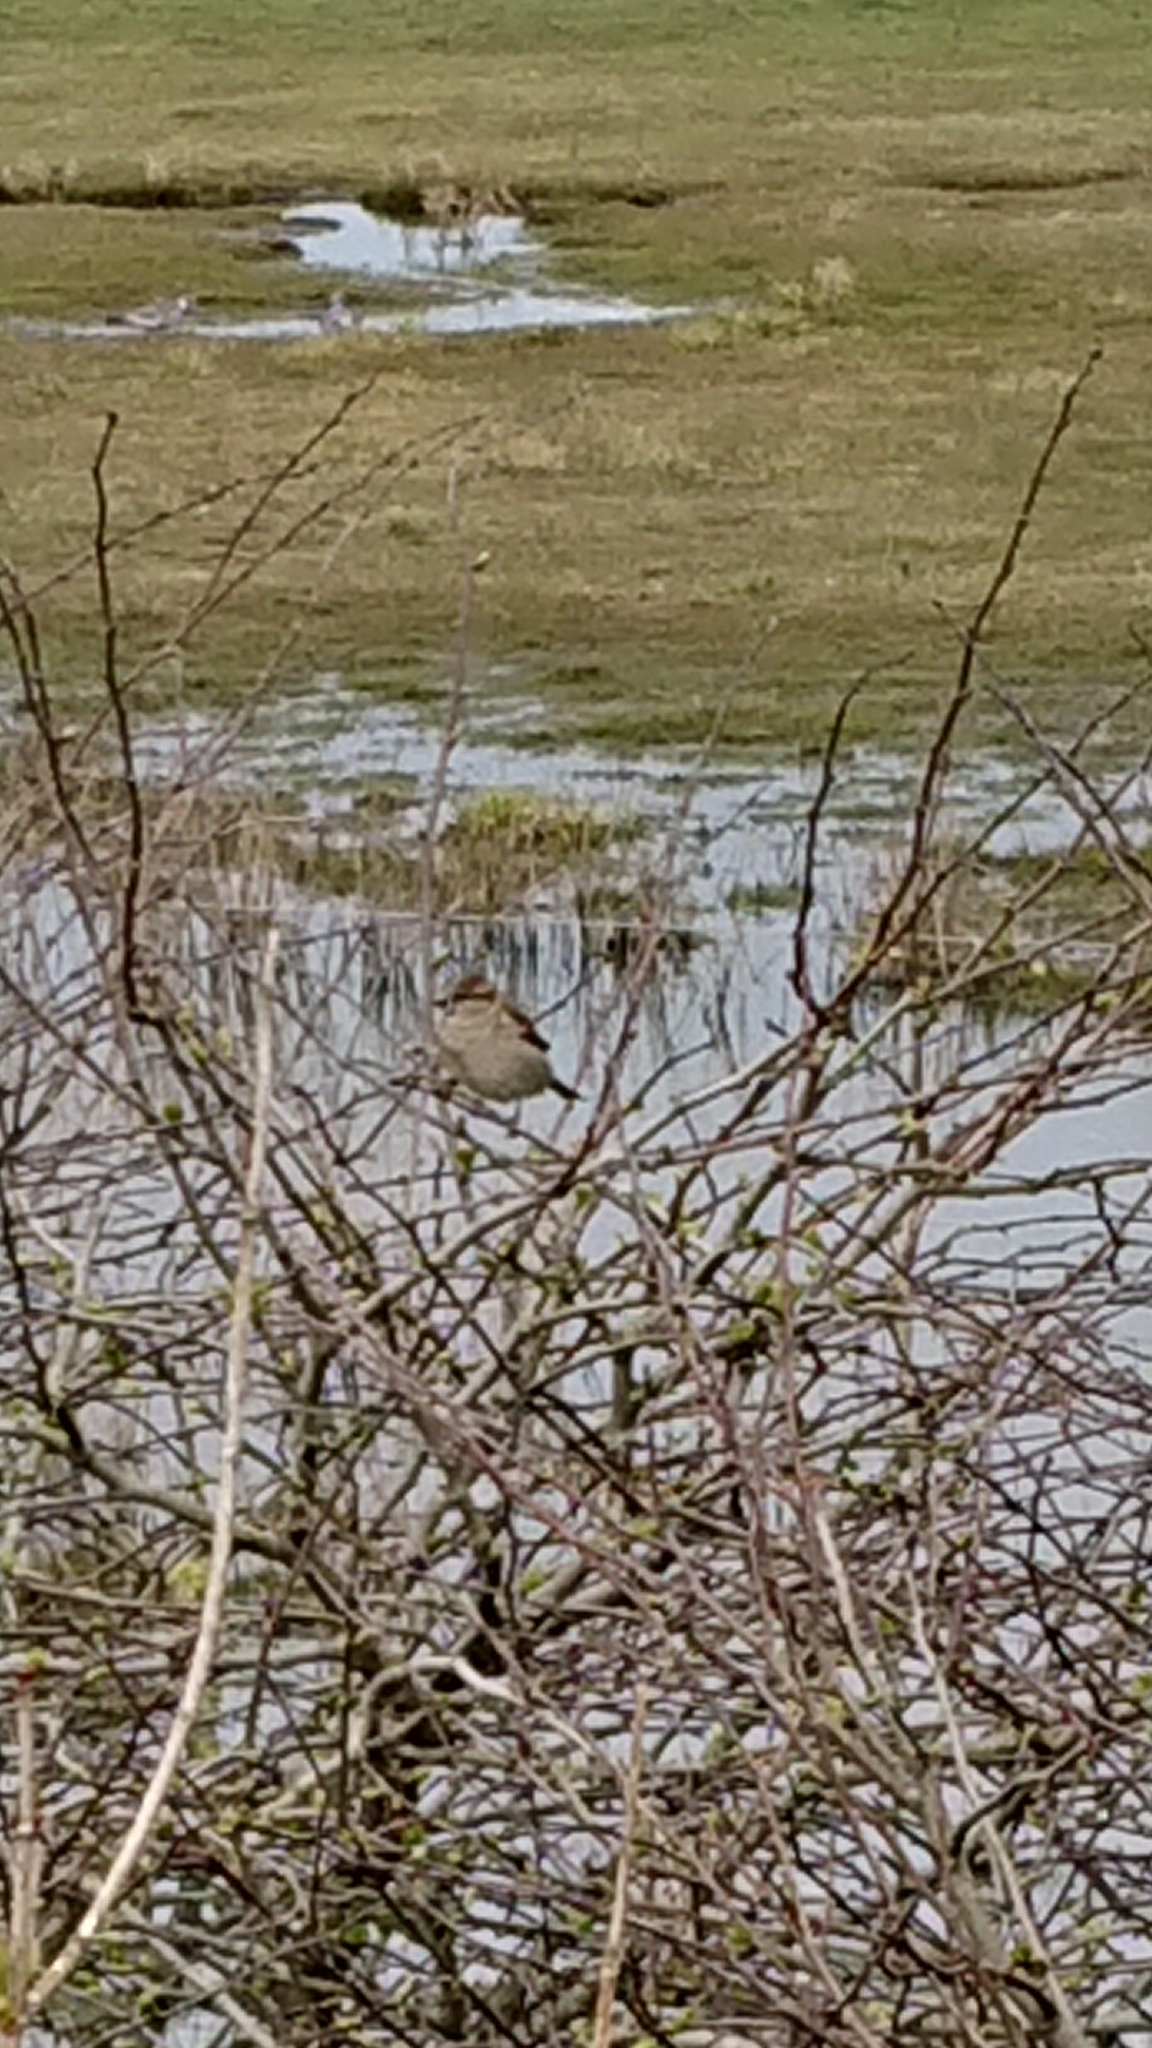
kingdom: Animalia
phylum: Chordata
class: Aves
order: Passeriformes
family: Passeridae
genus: Passer
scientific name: Passer domesticus
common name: House sparrow
